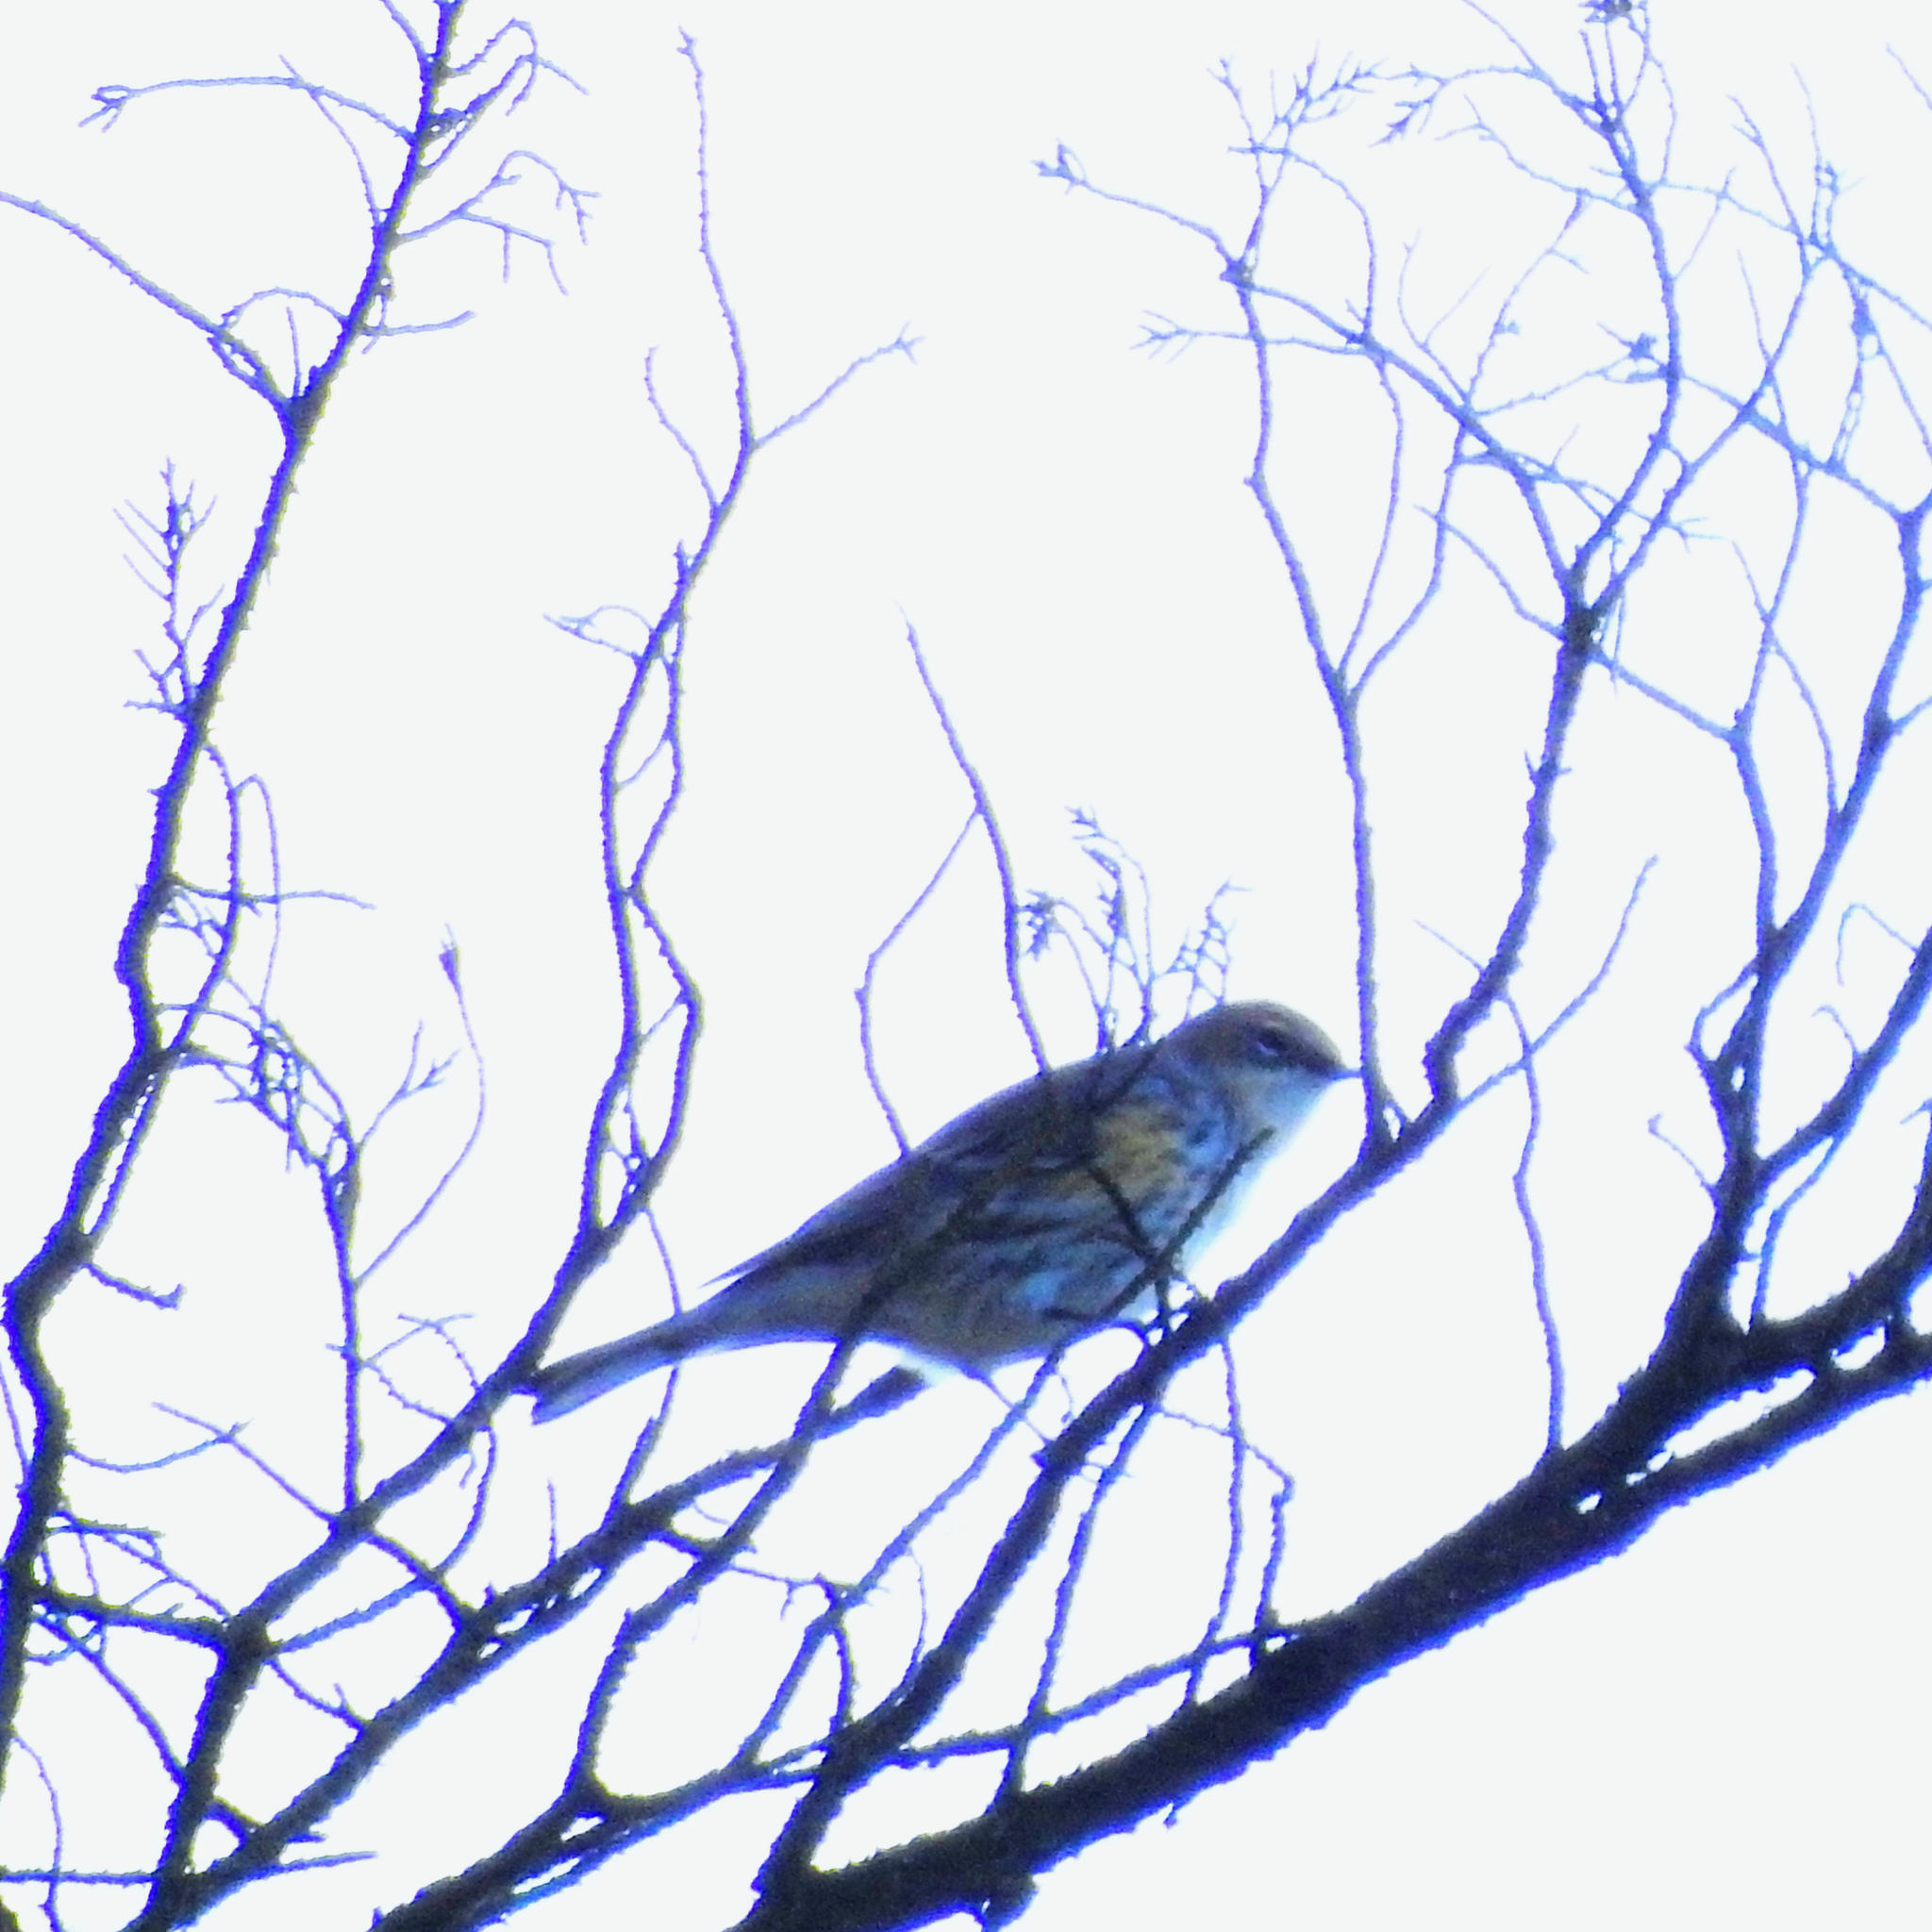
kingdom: Animalia
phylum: Chordata
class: Aves
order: Passeriformes
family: Parulidae
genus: Setophaga
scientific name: Setophaga coronata
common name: Myrtle warbler
